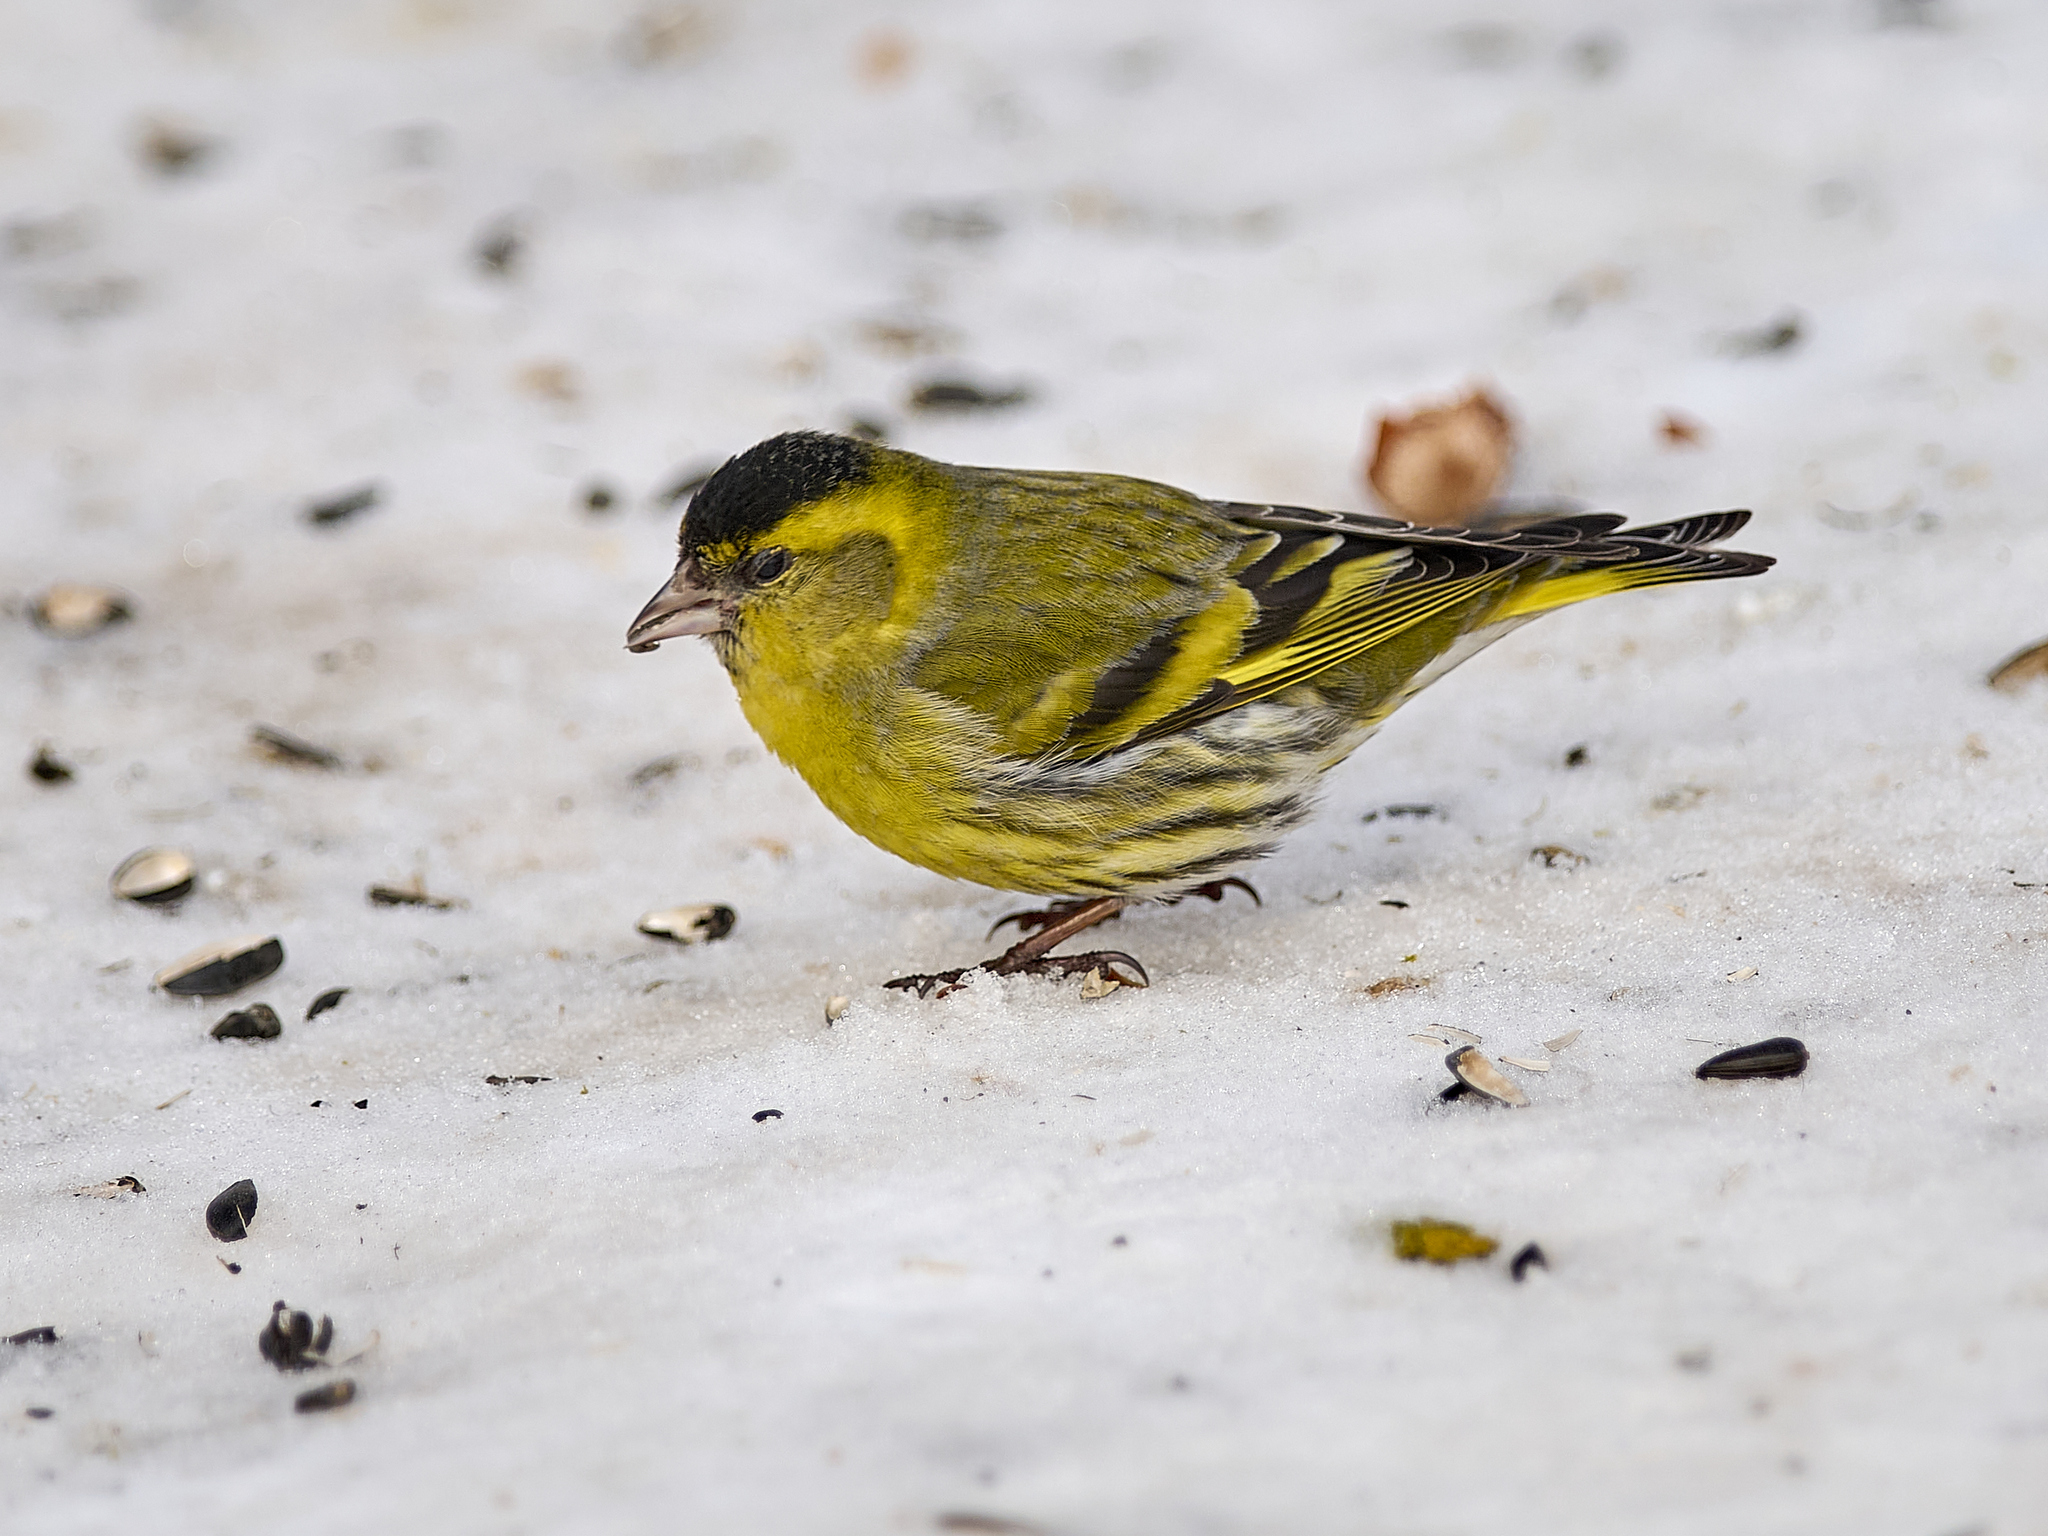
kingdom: Animalia
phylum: Chordata
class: Aves
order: Passeriformes
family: Fringillidae
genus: Spinus
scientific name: Spinus spinus
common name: Eurasian siskin
